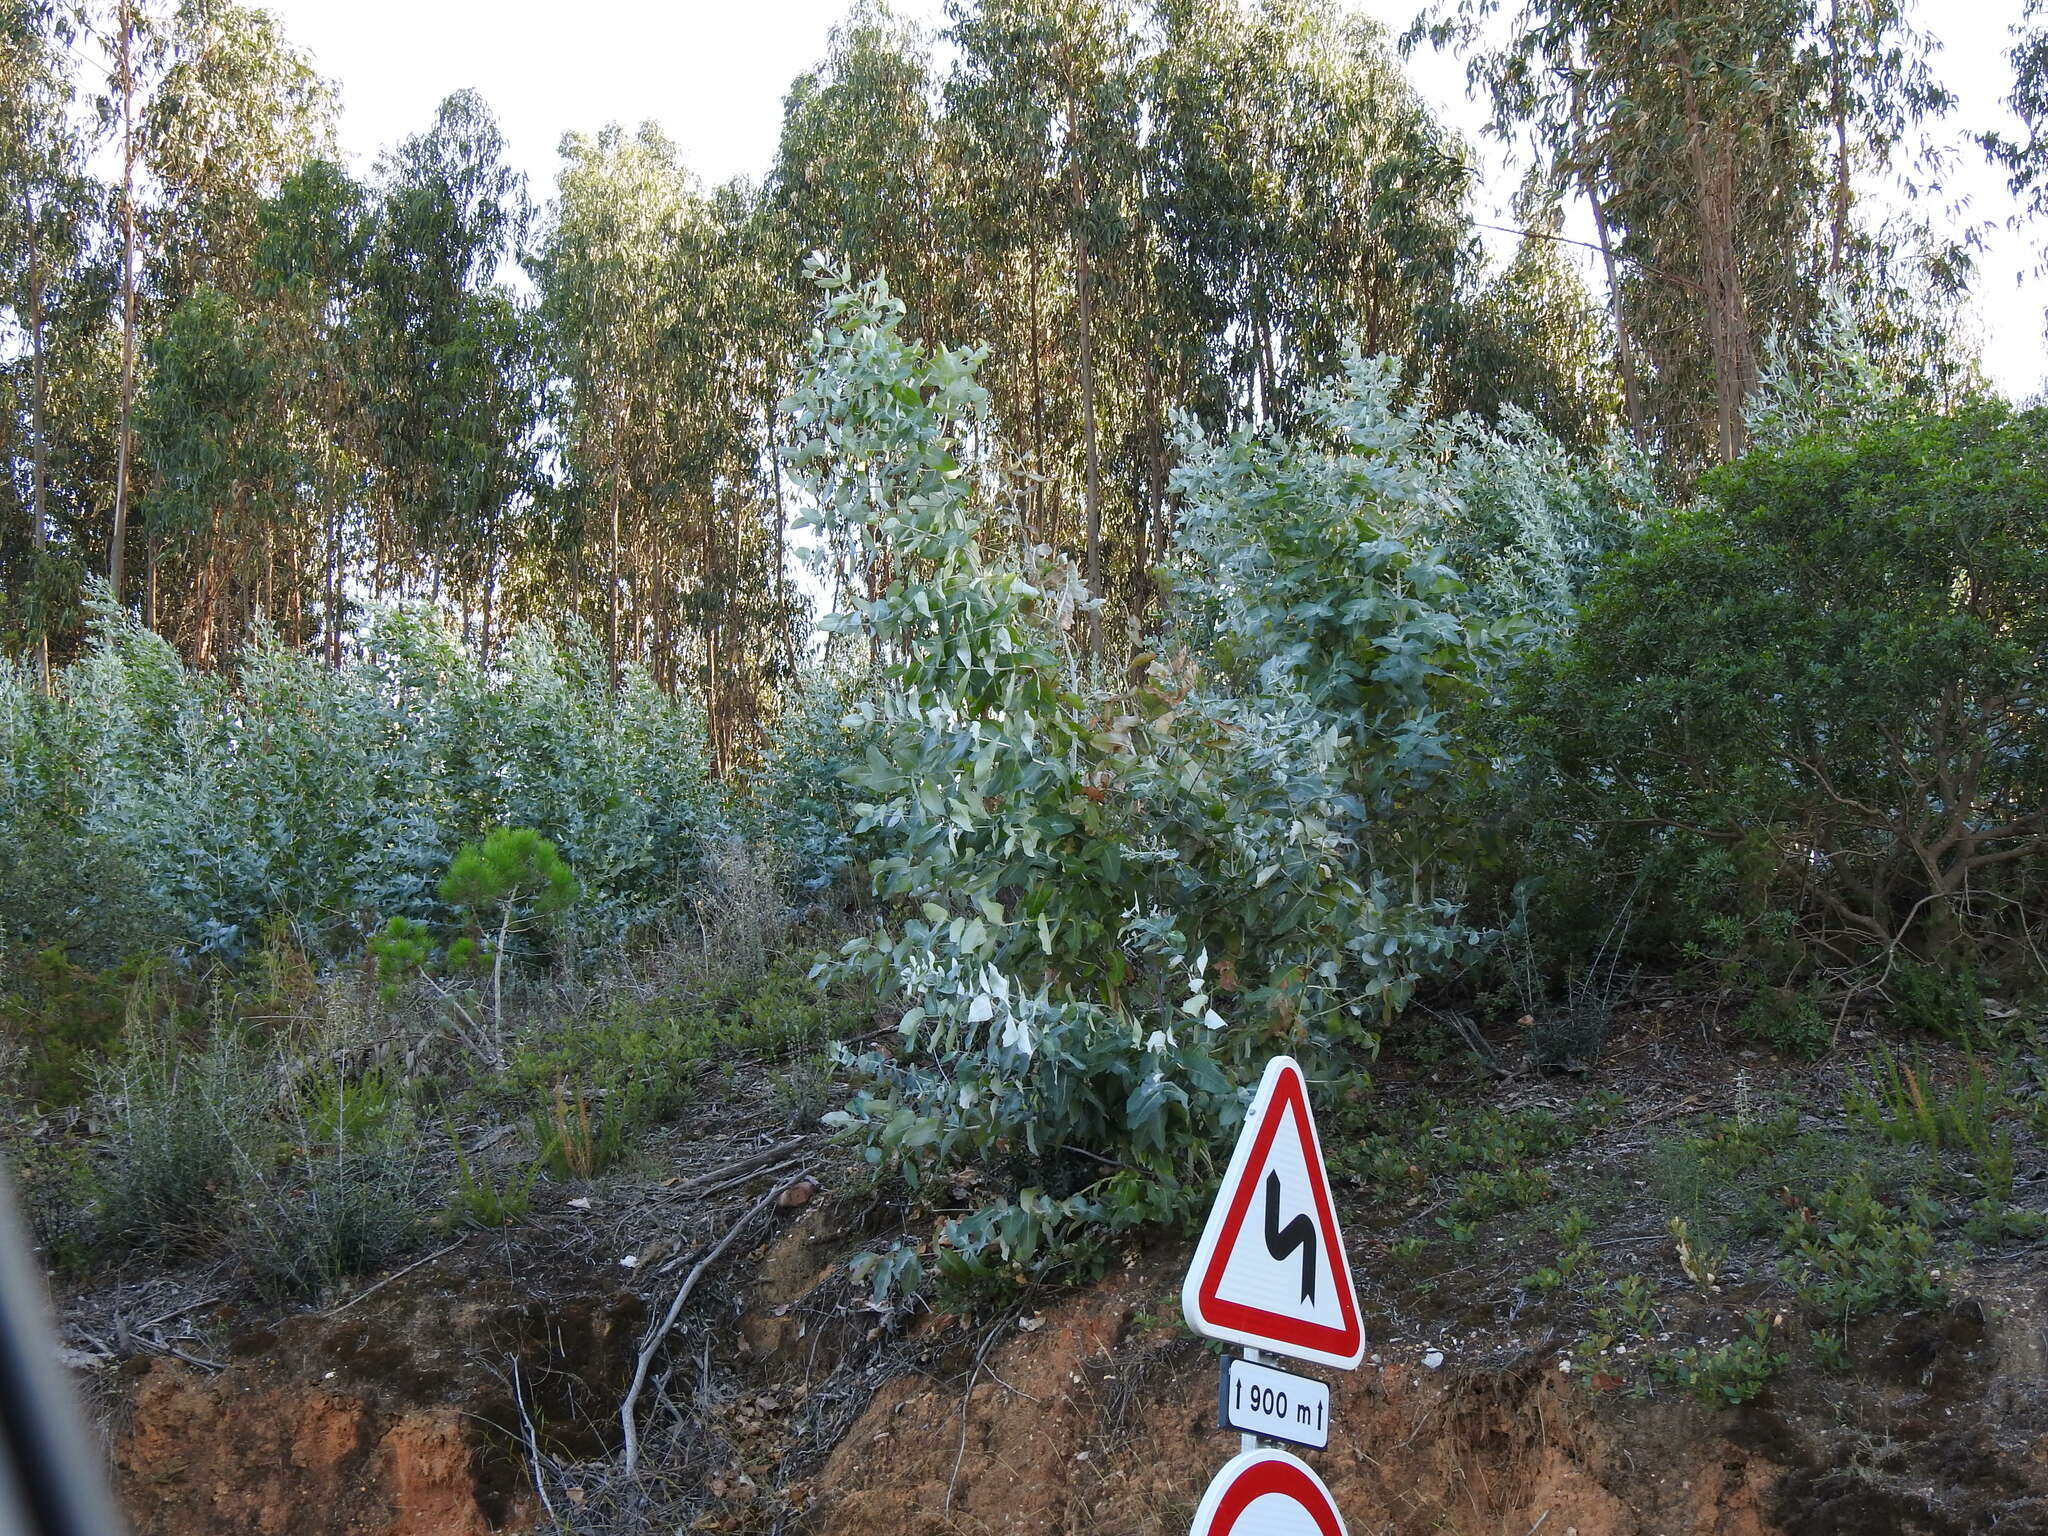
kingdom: Plantae
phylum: Tracheophyta
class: Magnoliopsida
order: Myrtales
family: Myrtaceae
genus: Eucalyptus
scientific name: Eucalyptus globulus
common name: Southern blue-gum
